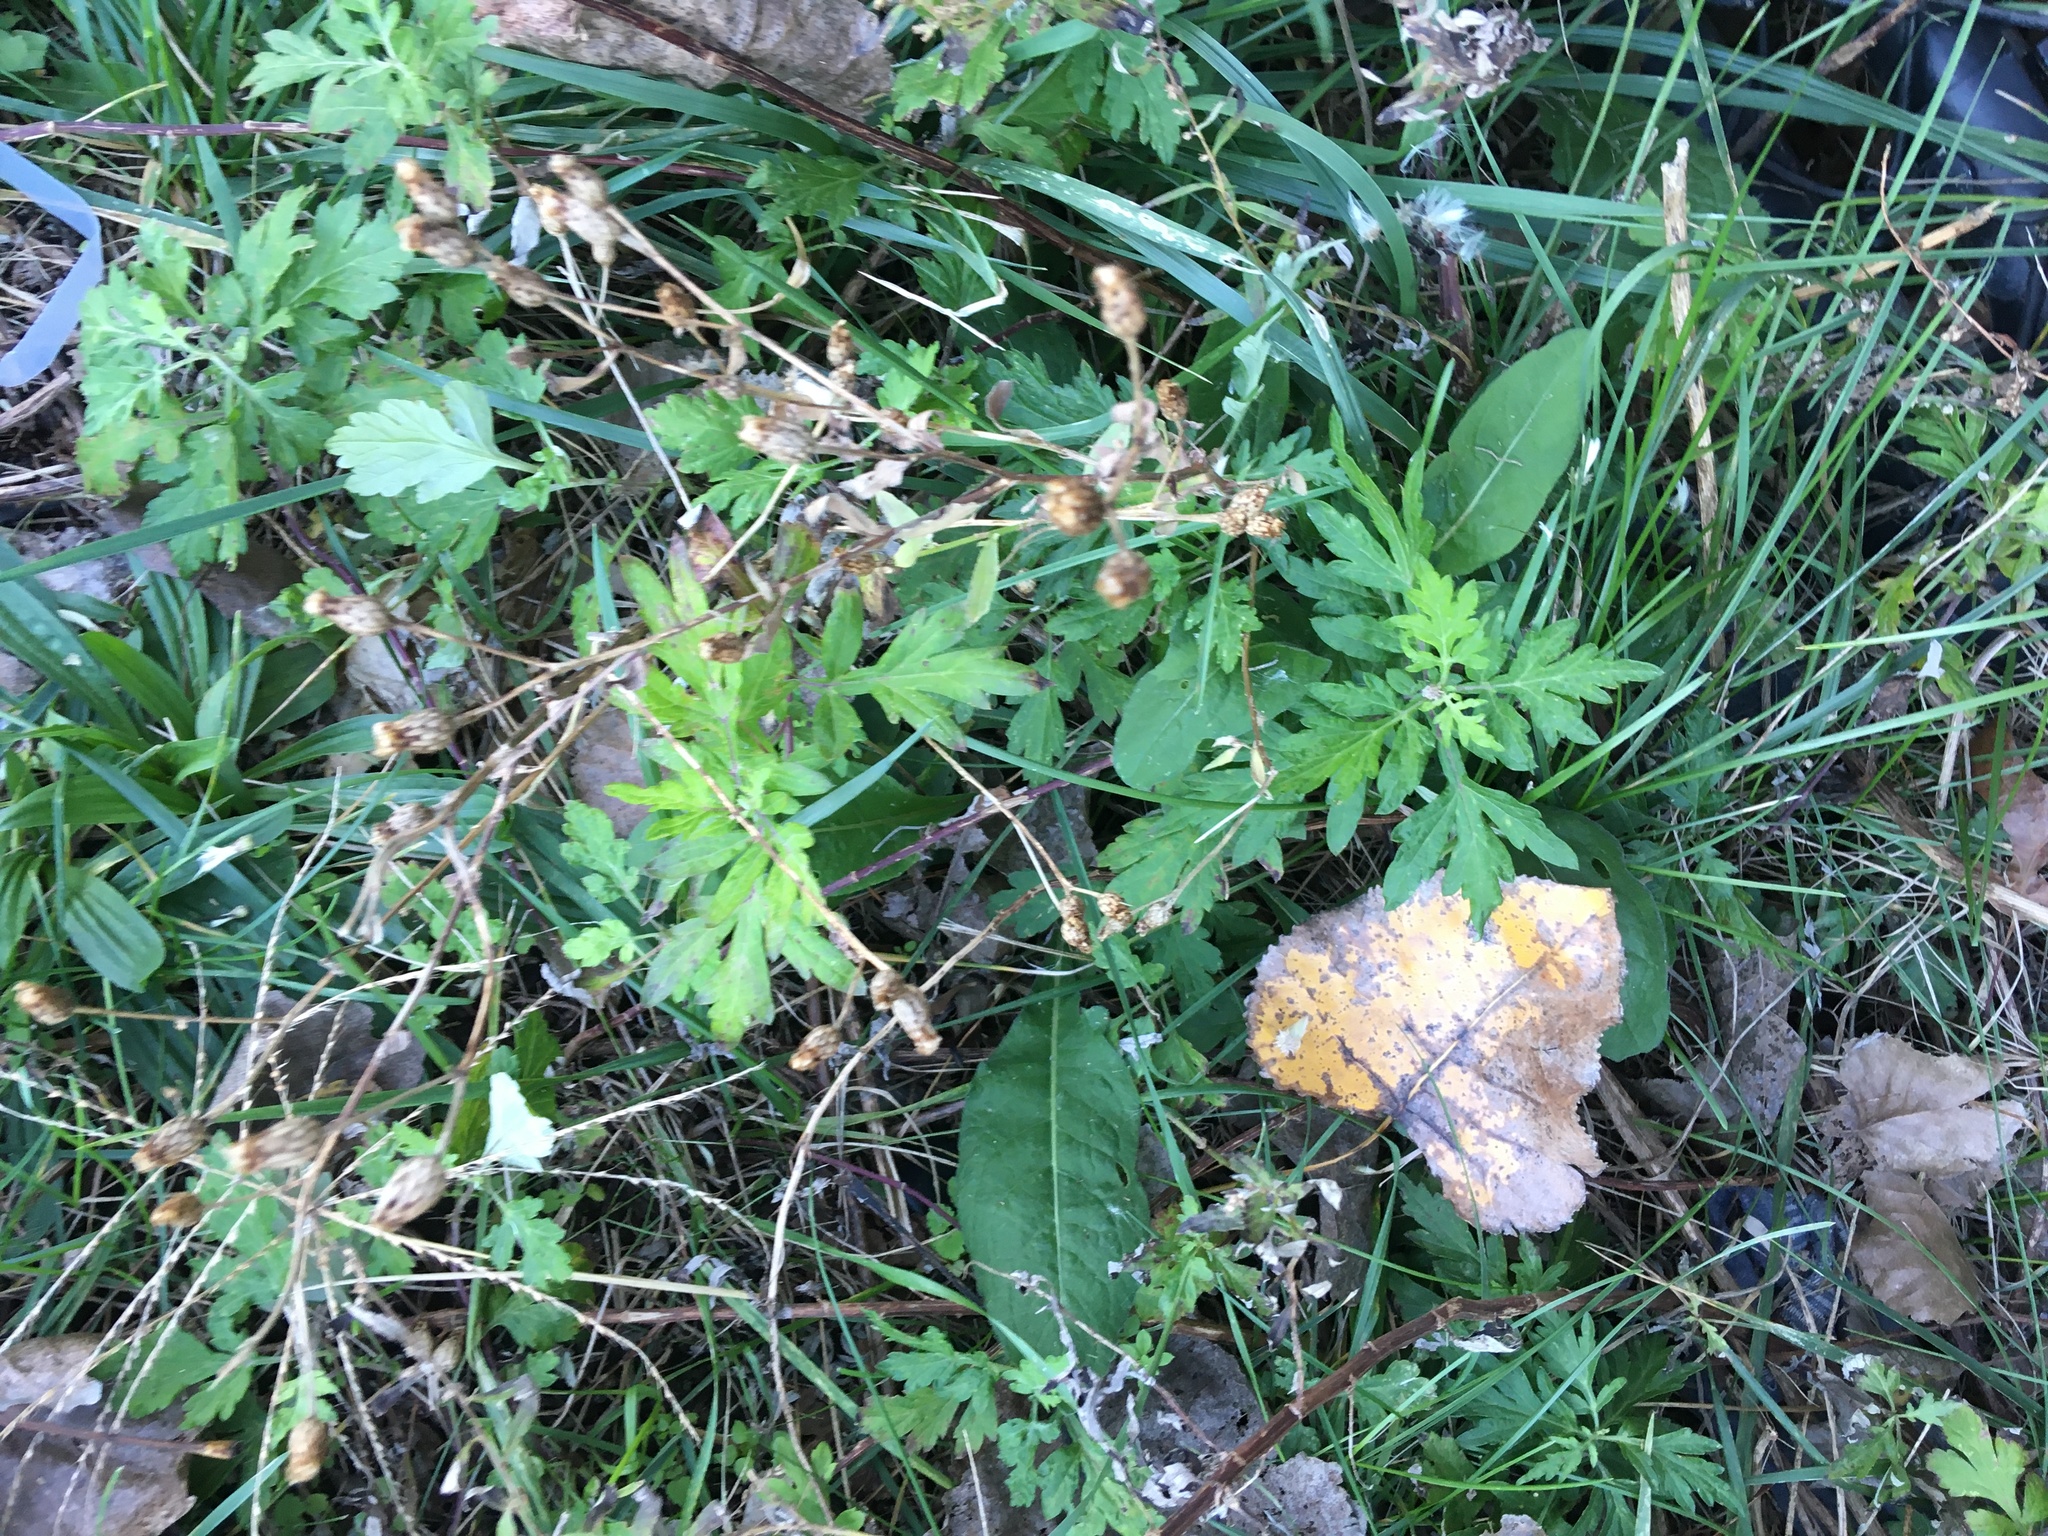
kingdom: Plantae
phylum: Tracheophyta
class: Magnoliopsida
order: Asterales
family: Asteraceae
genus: Artemisia
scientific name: Artemisia vulgaris
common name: Mugwort
